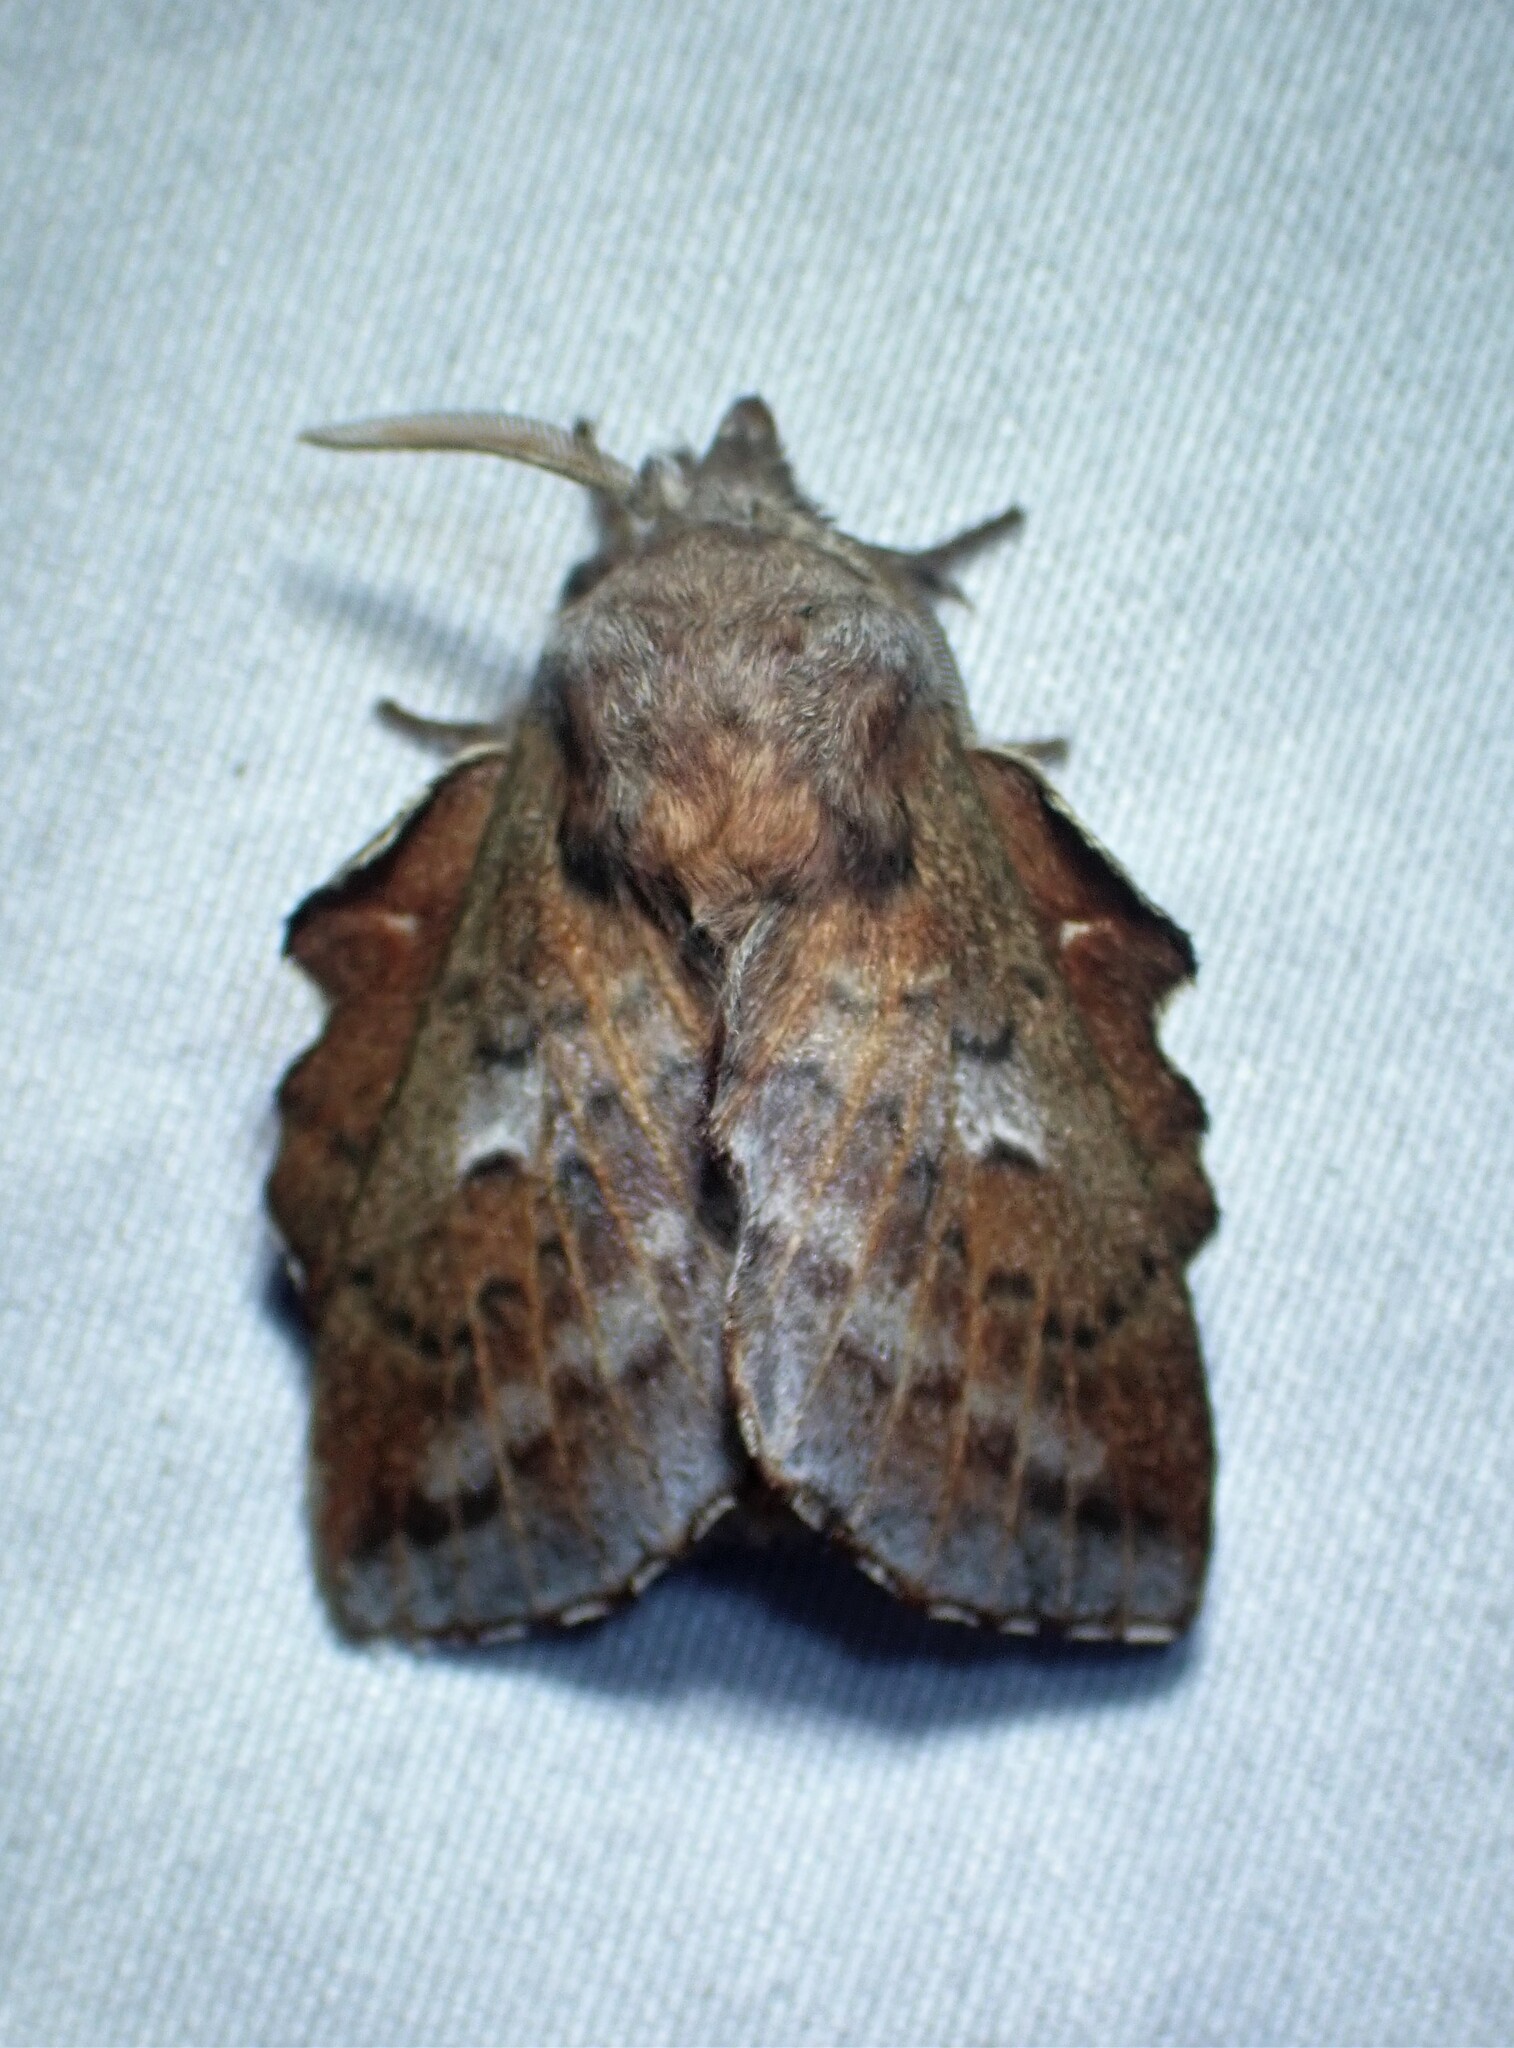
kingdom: Animalia
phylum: Arthropoda
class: Insecta
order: Lepidoptera
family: Lasiocampidae
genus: Phyllodesma
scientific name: Phyllodesma americana
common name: American lappet moth
